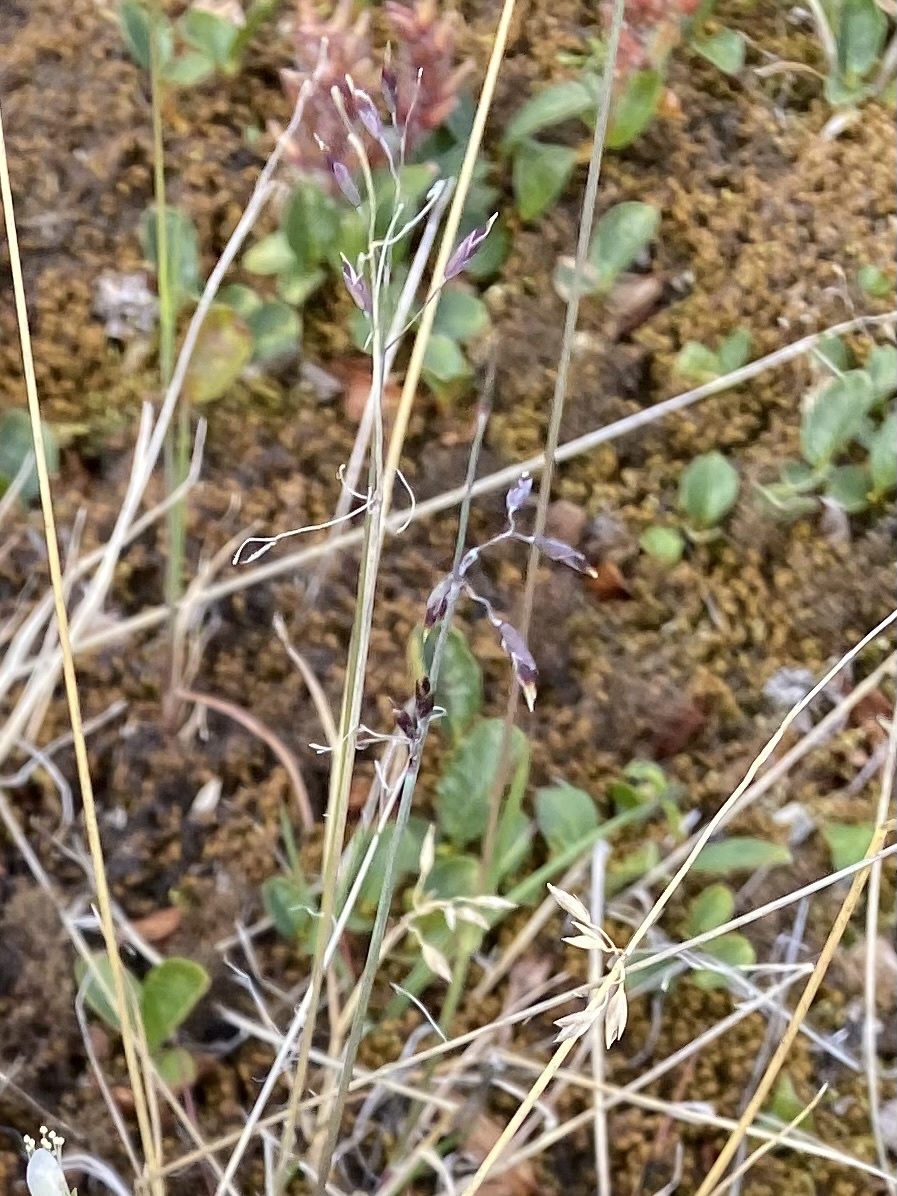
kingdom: Plantae
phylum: Tracheophyta
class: Liliopsida
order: Poales
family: Poaceae
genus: Poa
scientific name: Poa
